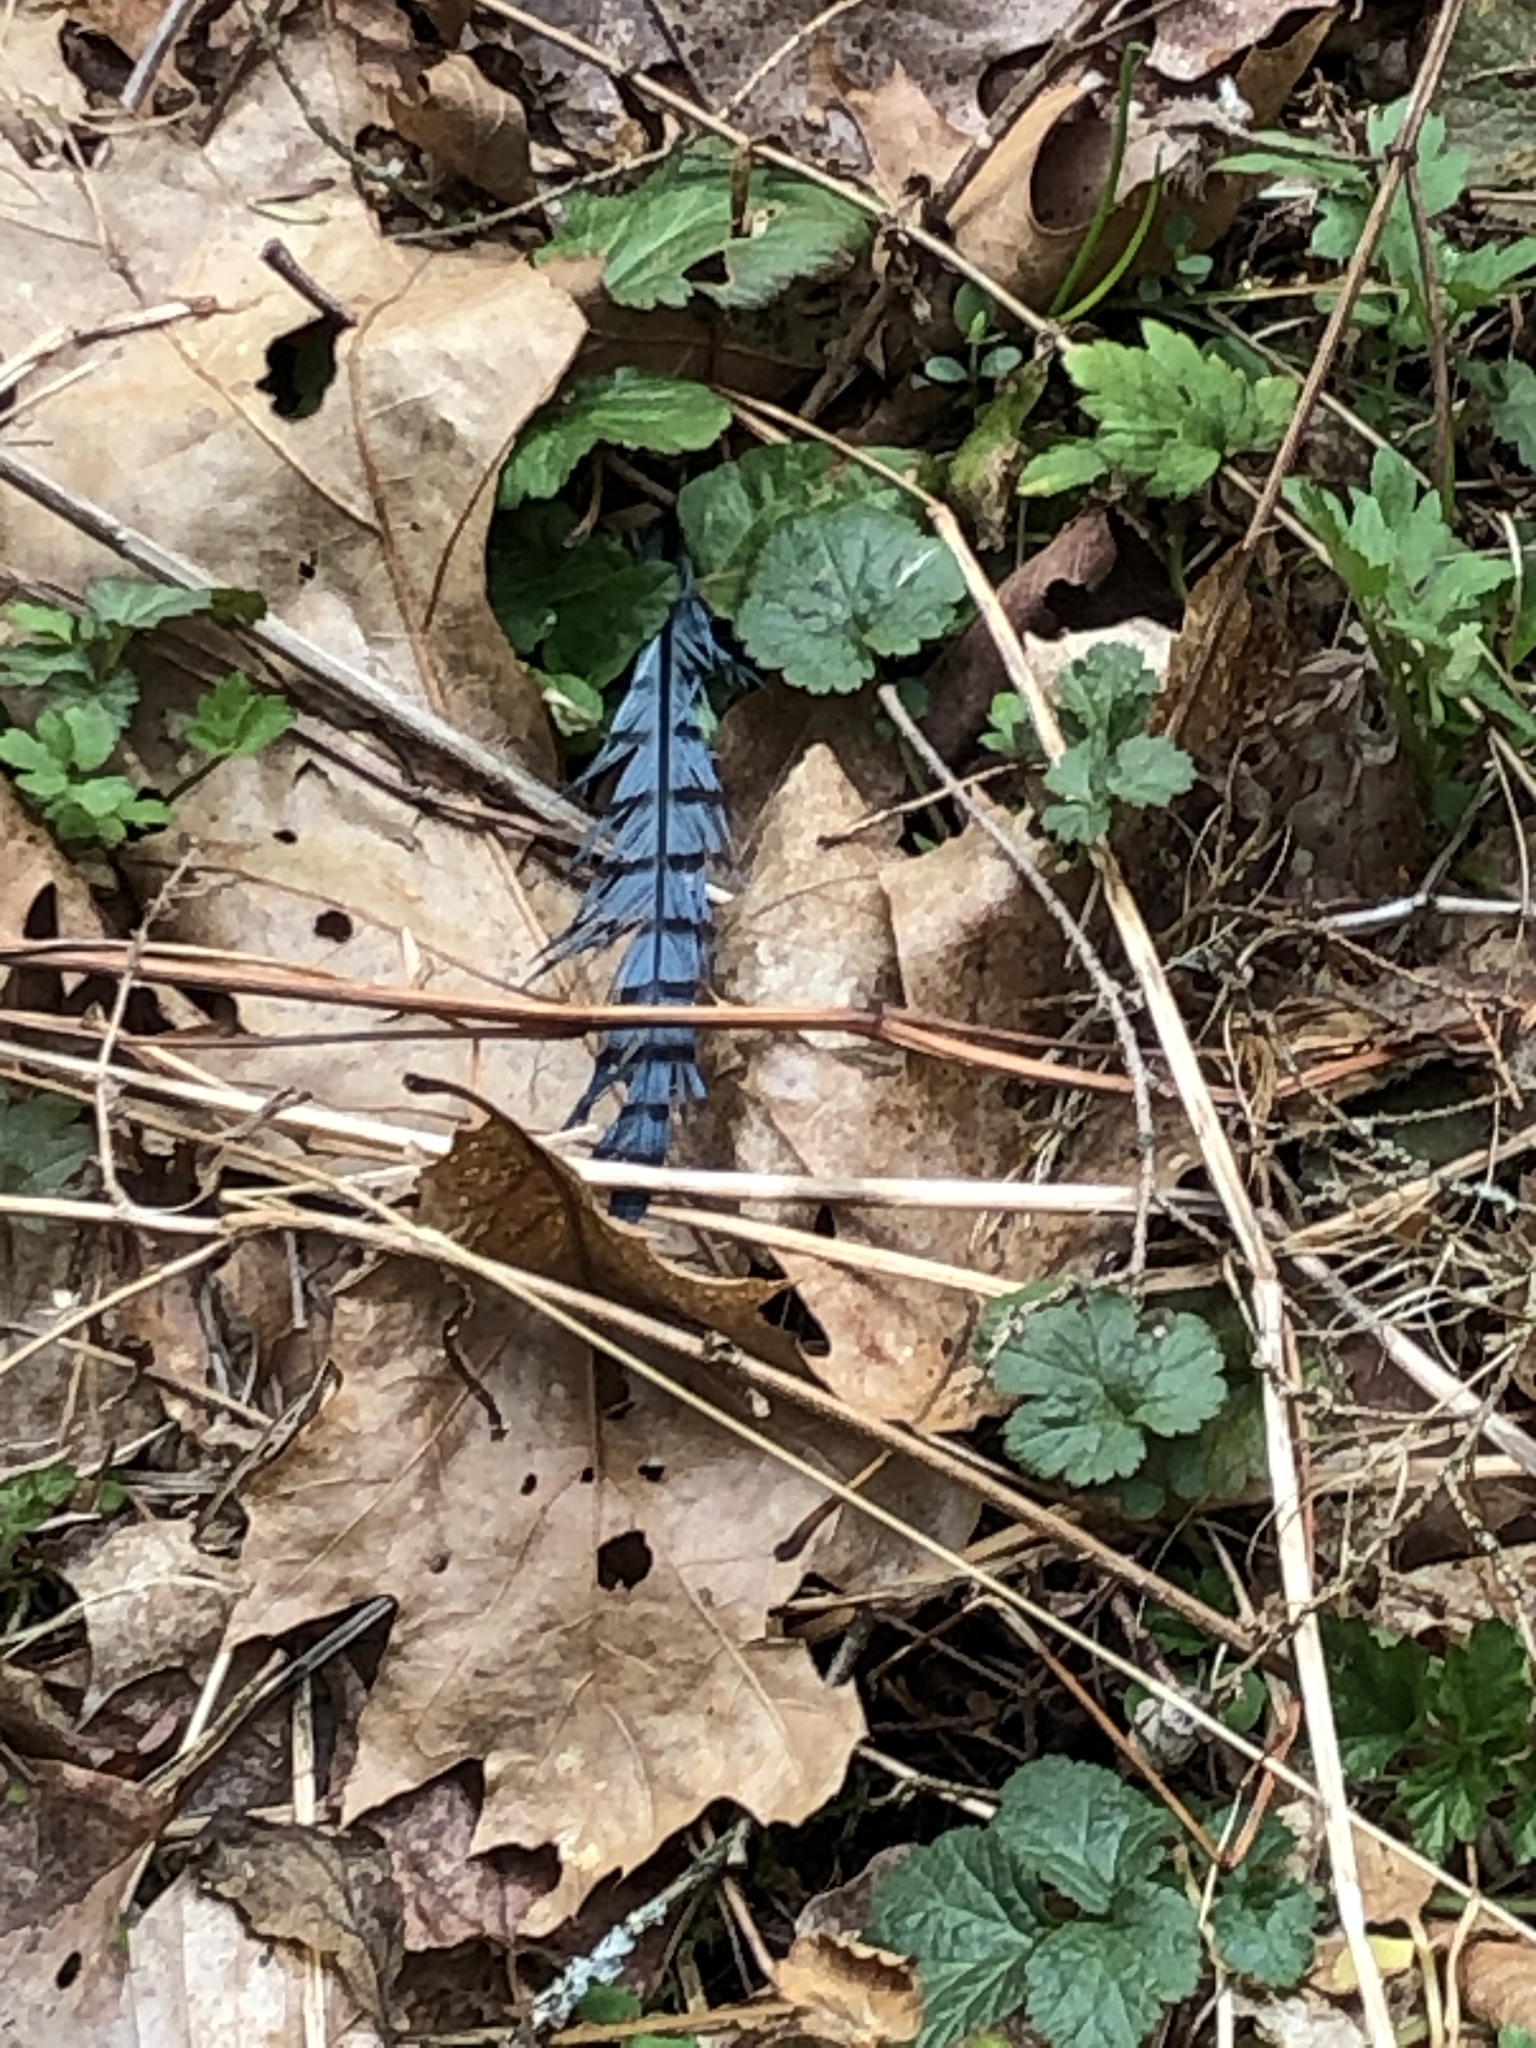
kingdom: Animalia
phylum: Chordata
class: Aves
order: Passeriformes
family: Corvidae
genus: Cyanocitta
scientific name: Cyanocitta cristata
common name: Blue jay
